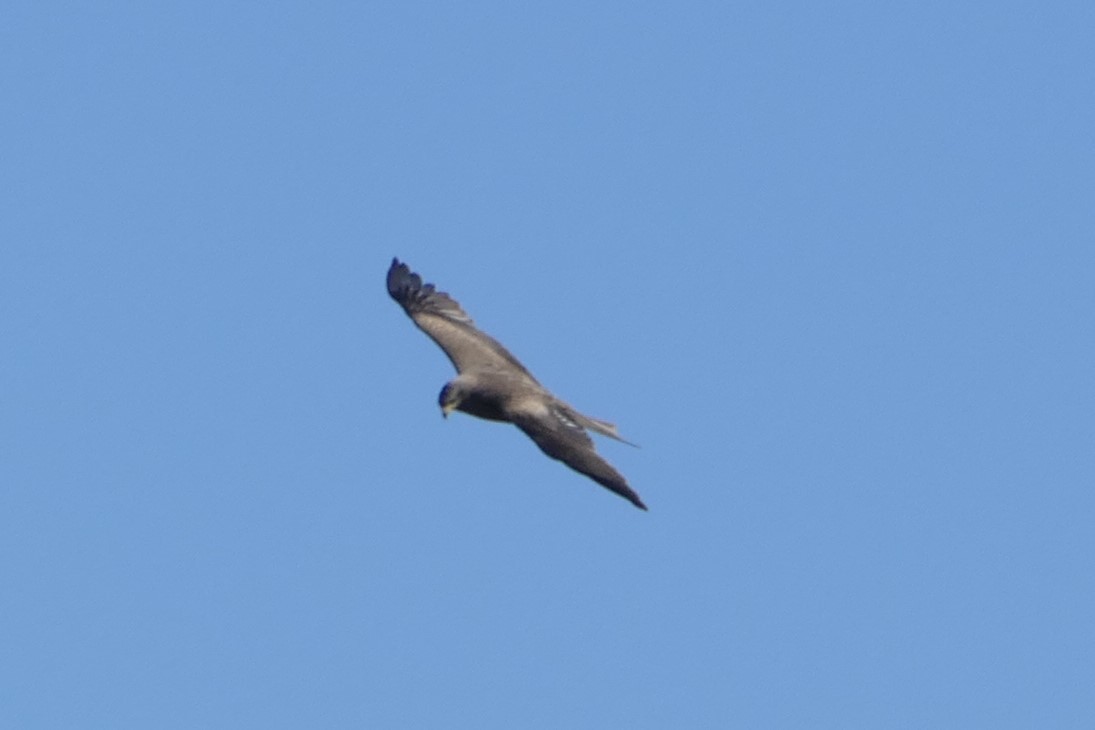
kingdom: Animalia
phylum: Chordata
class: Aves
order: Accipitriformes
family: Accipitridae
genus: Milvus
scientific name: Milvus migrans
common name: Black kite
